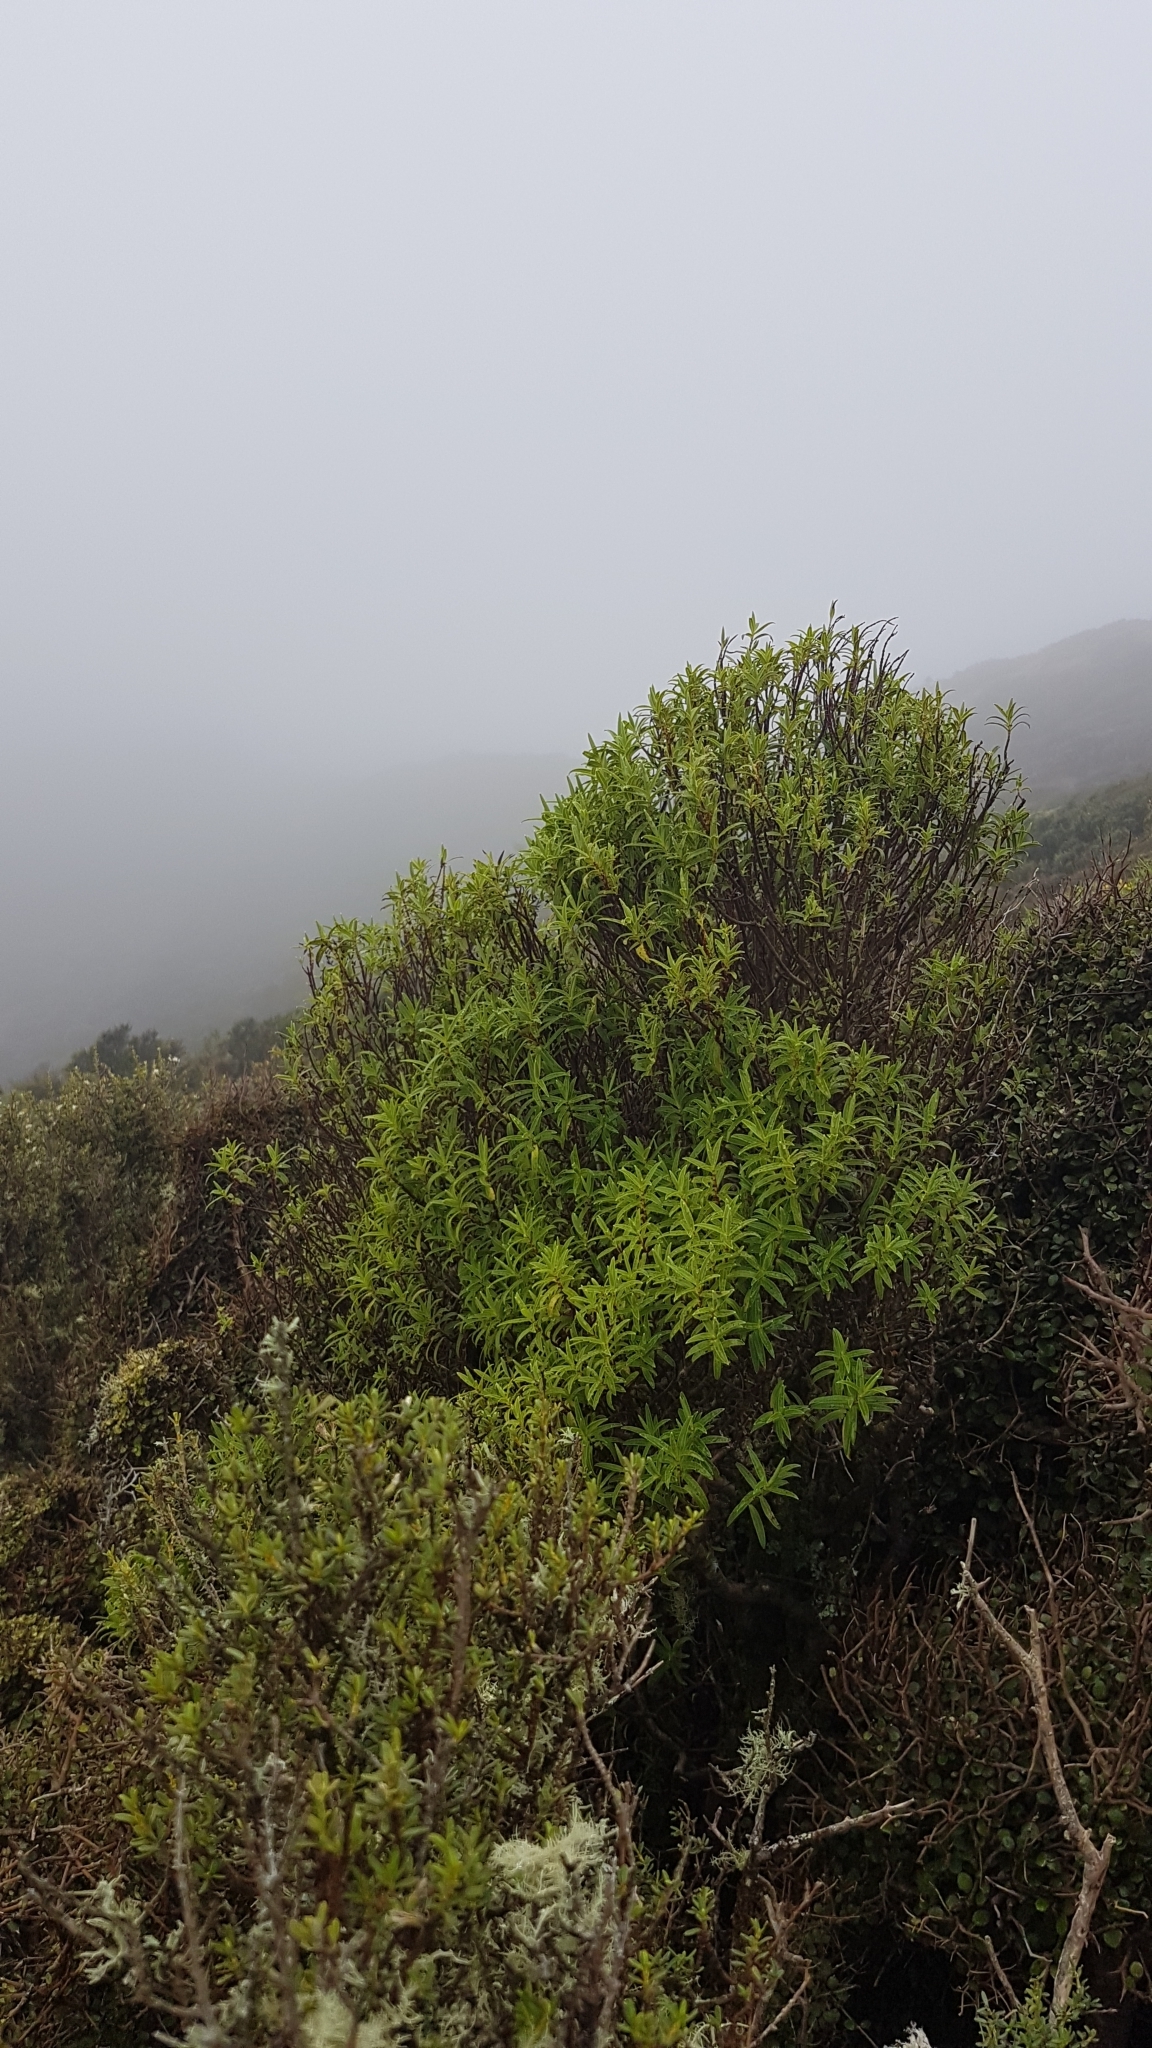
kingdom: Plantae
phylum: Tracheophyta
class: Magnoliopsida
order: Lamiales
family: Plantaginaceae
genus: Veronica
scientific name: Veronica stricta
